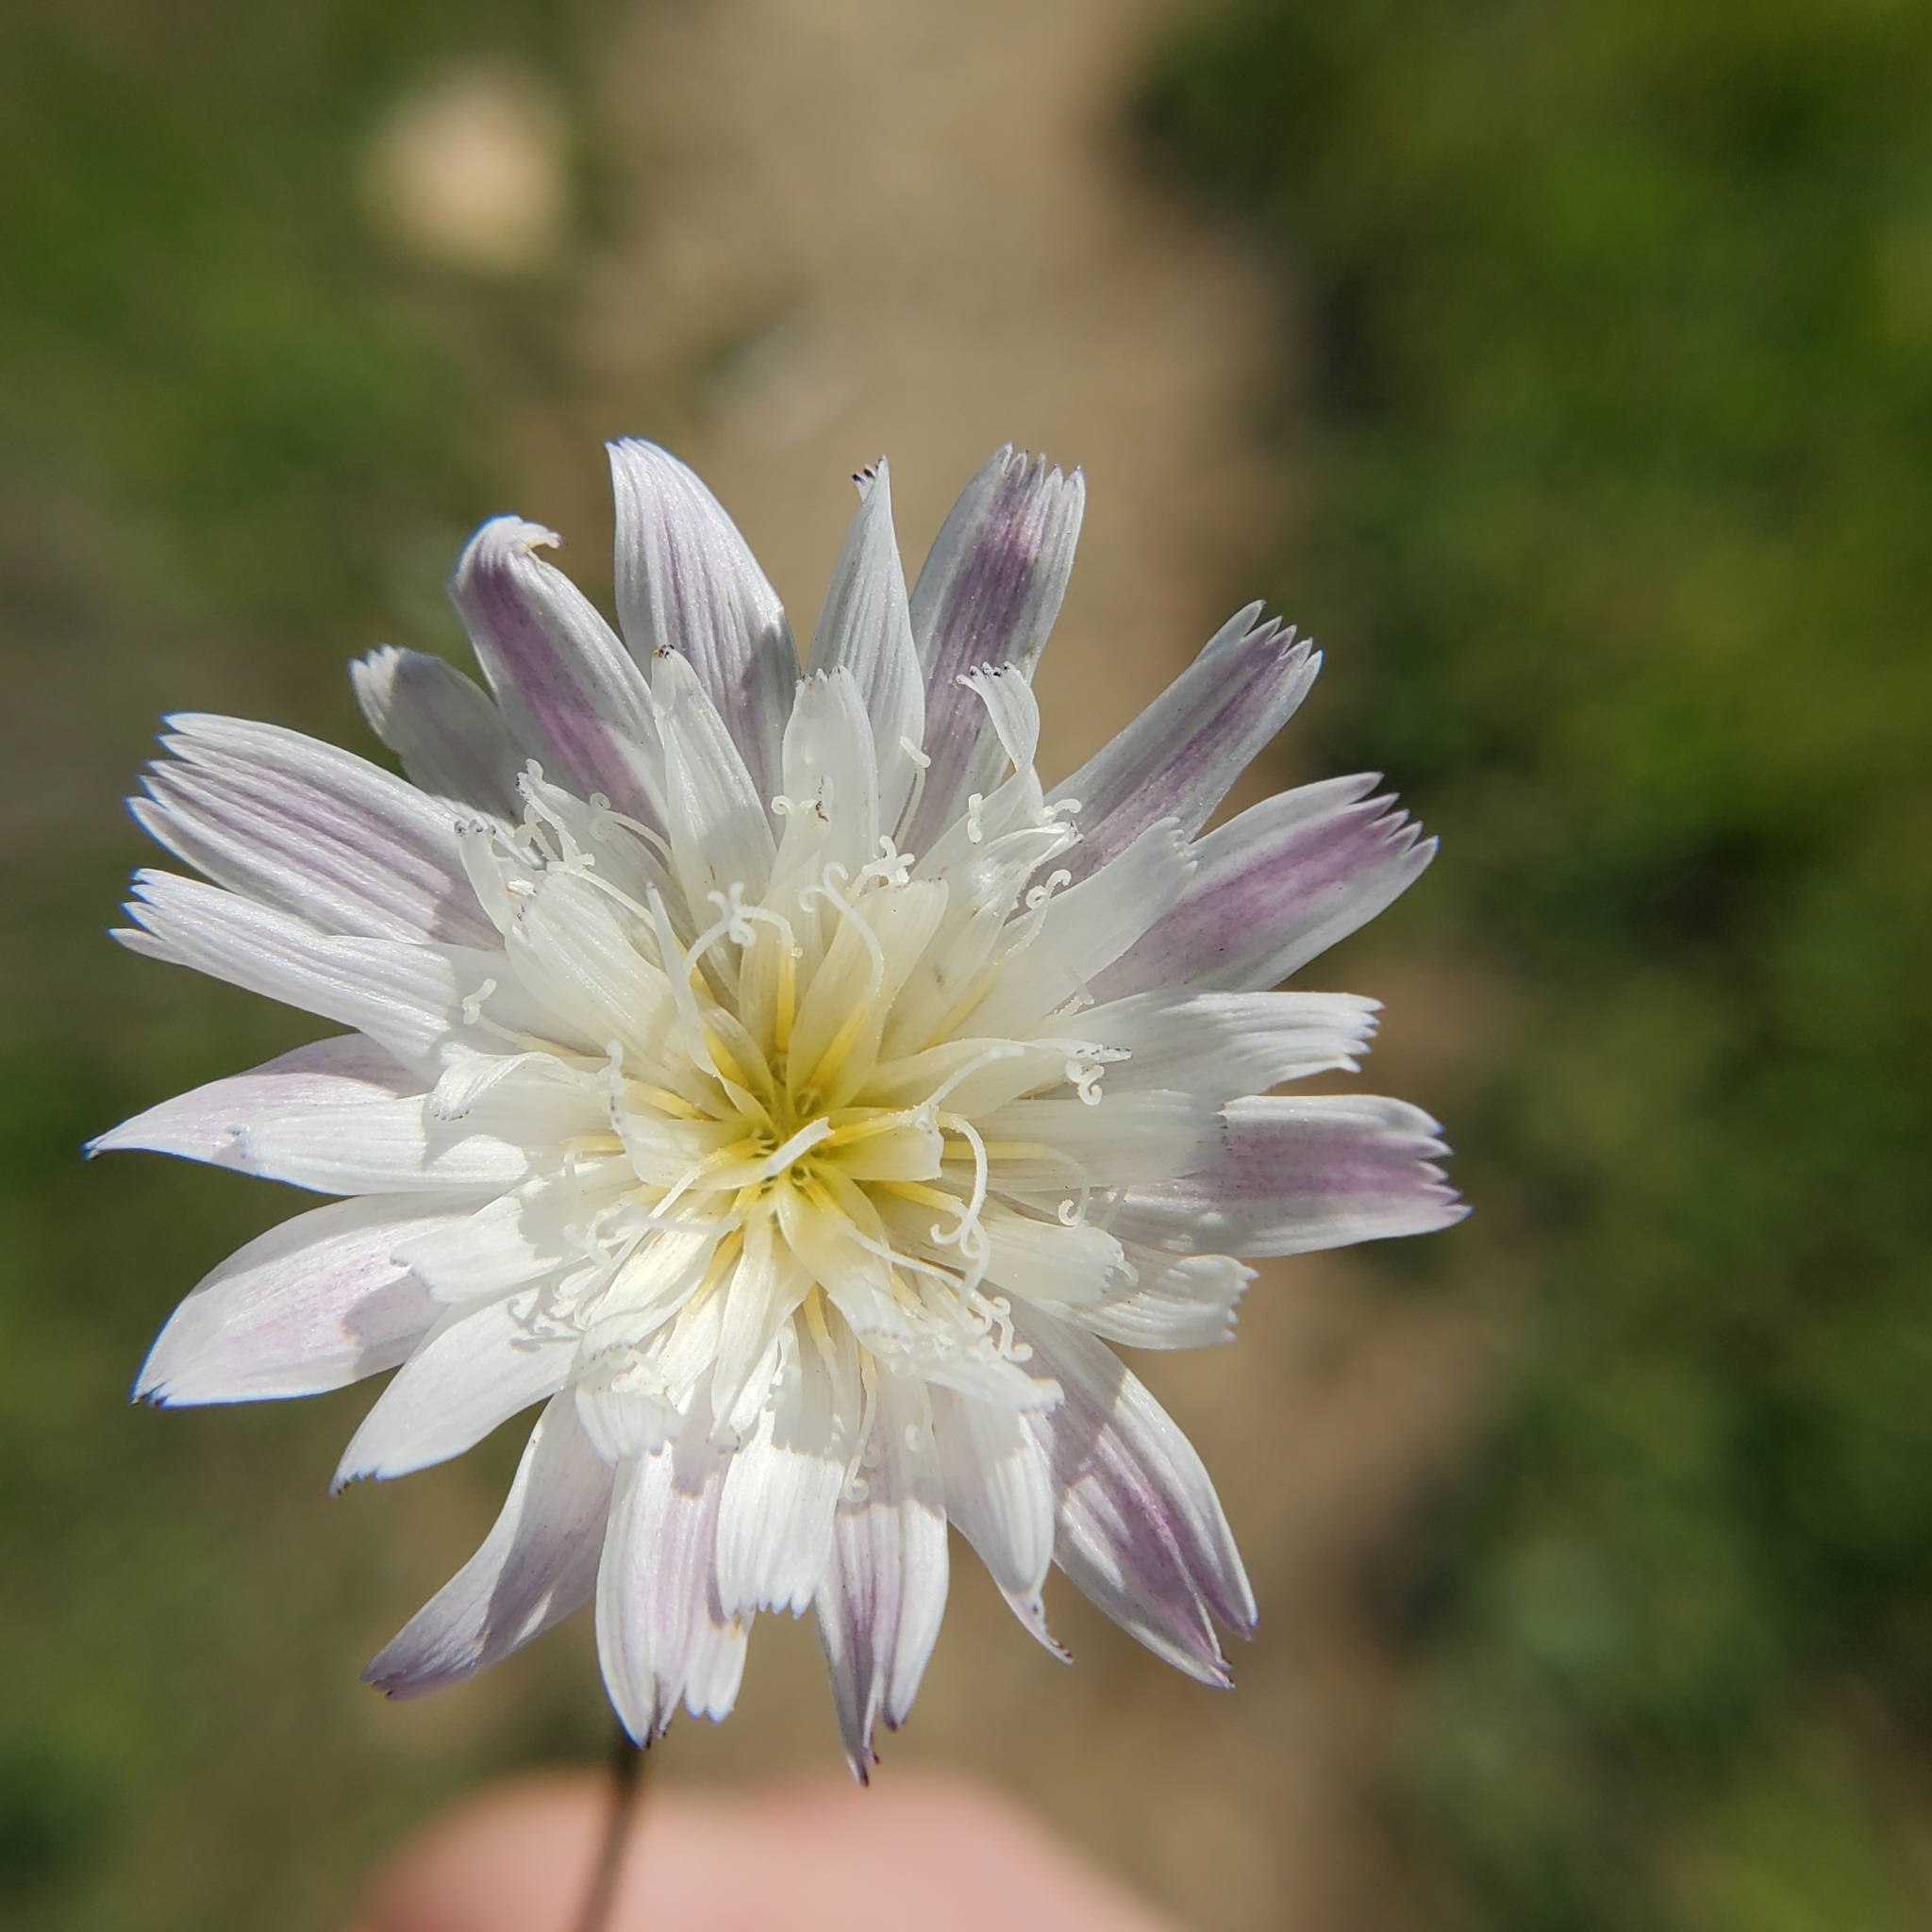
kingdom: Plantae
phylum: Tracheophyta
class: Magnoliopsida
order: Asterales
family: Asteraceae
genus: Malacothrix
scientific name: Malacothrix saxatilis
